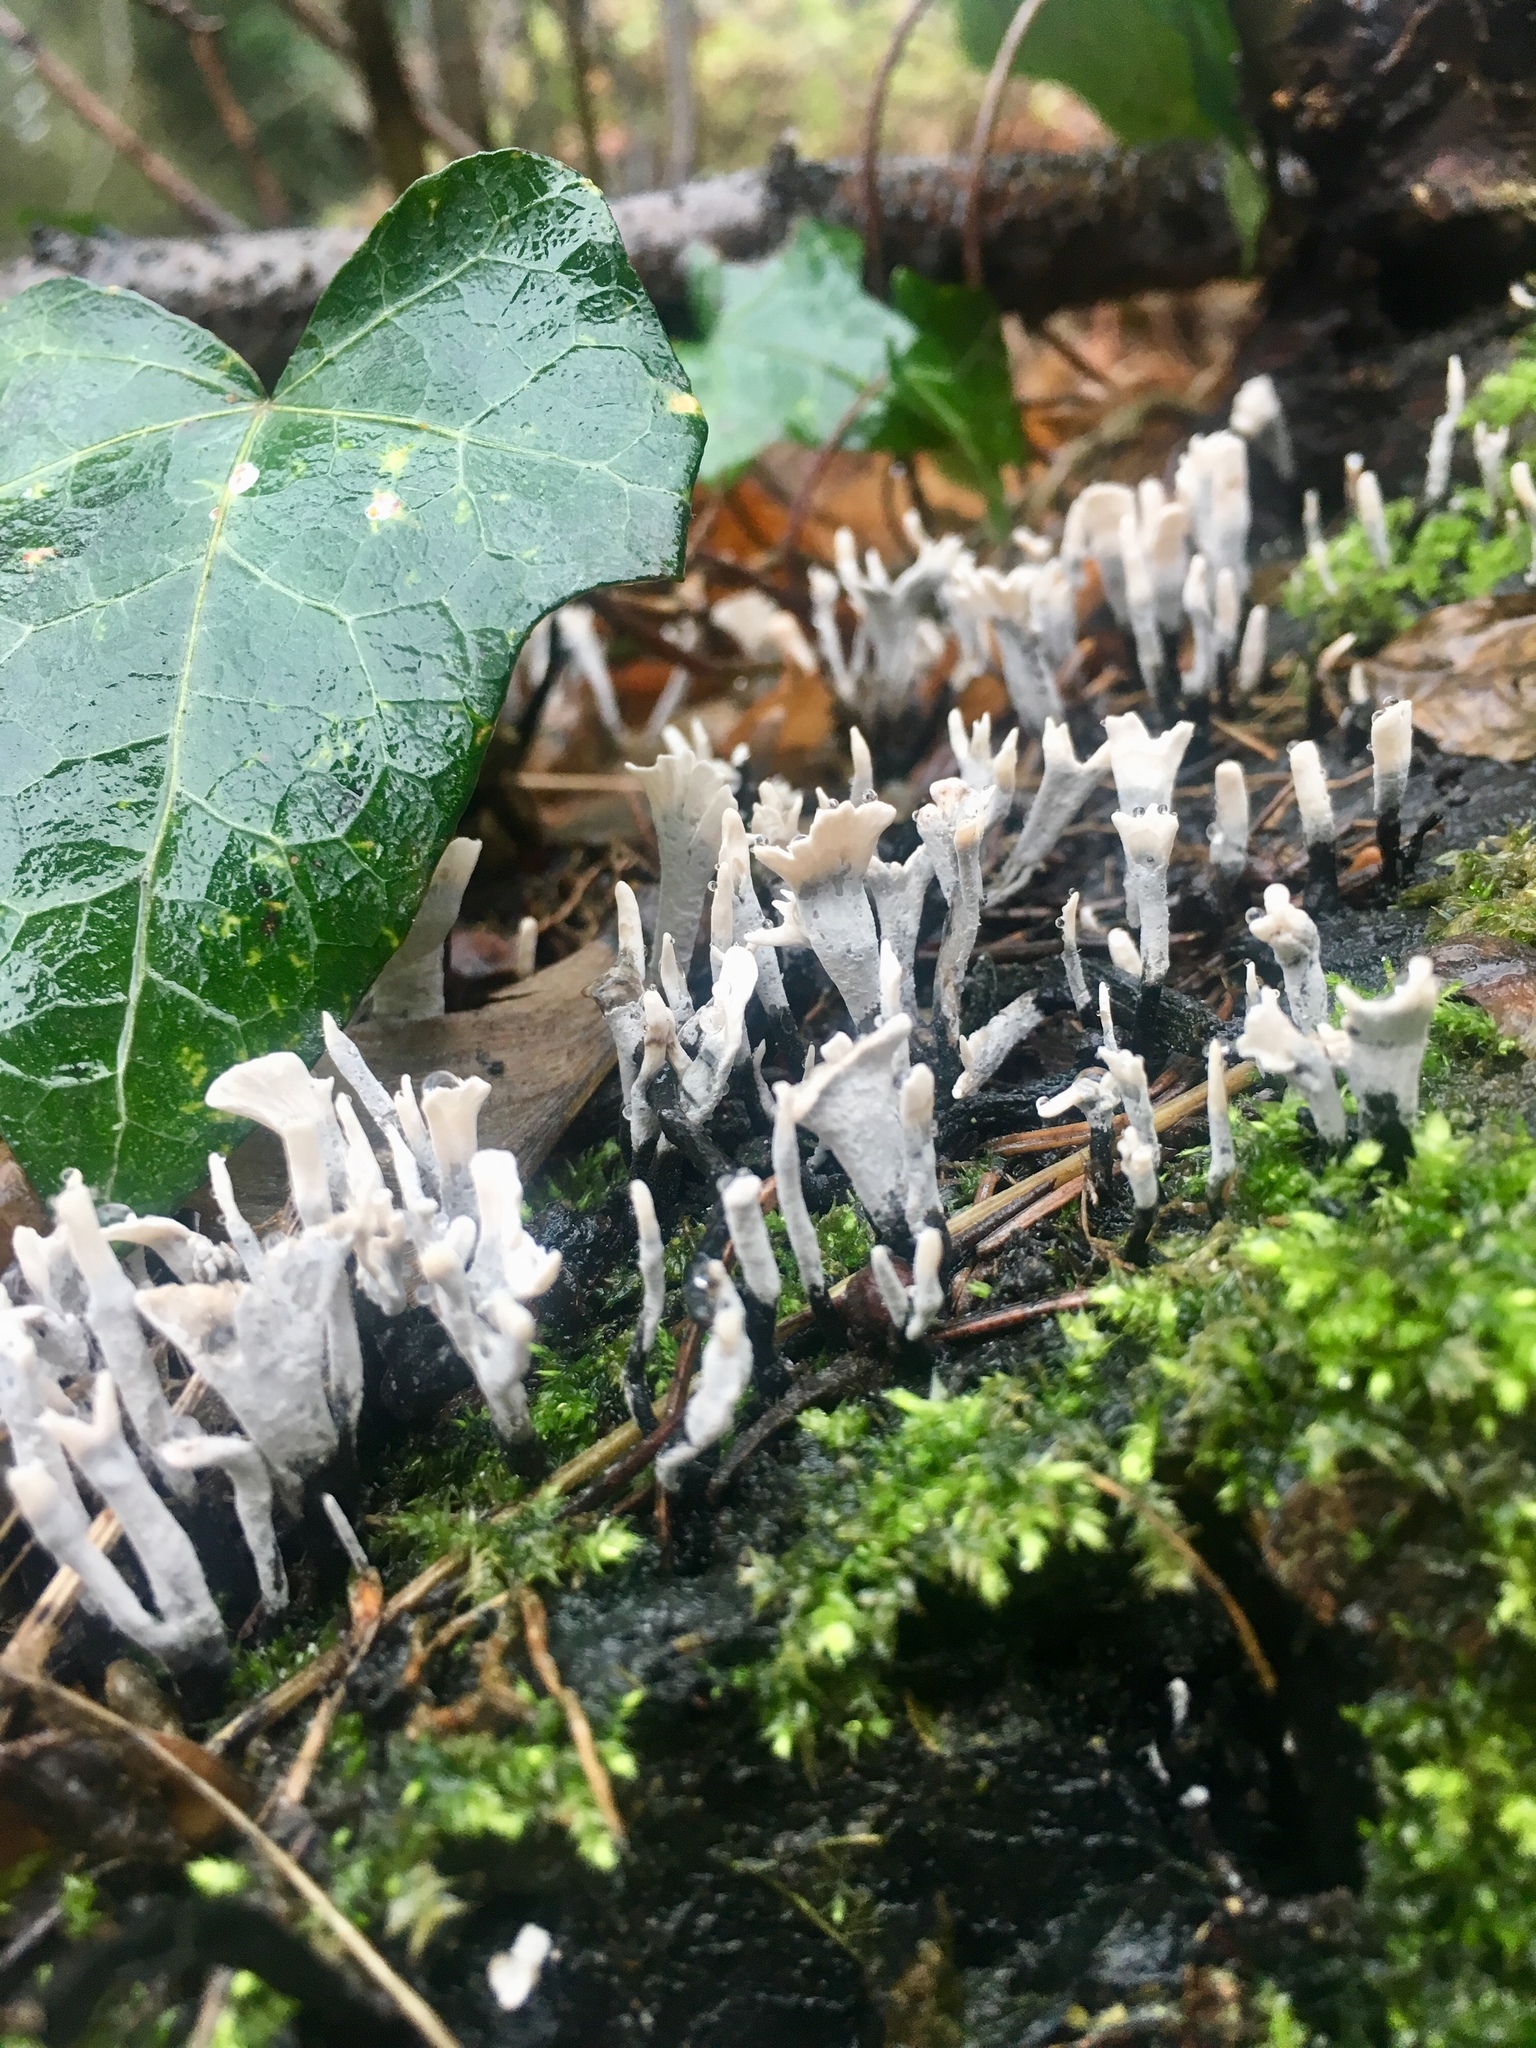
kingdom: Fungi
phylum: Ascomycota
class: Sordariomycetes
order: Xylariales
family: Xylariaceae
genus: Xylaria
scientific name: Xylaria hypoxylon
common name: Candle-snuff fungus
